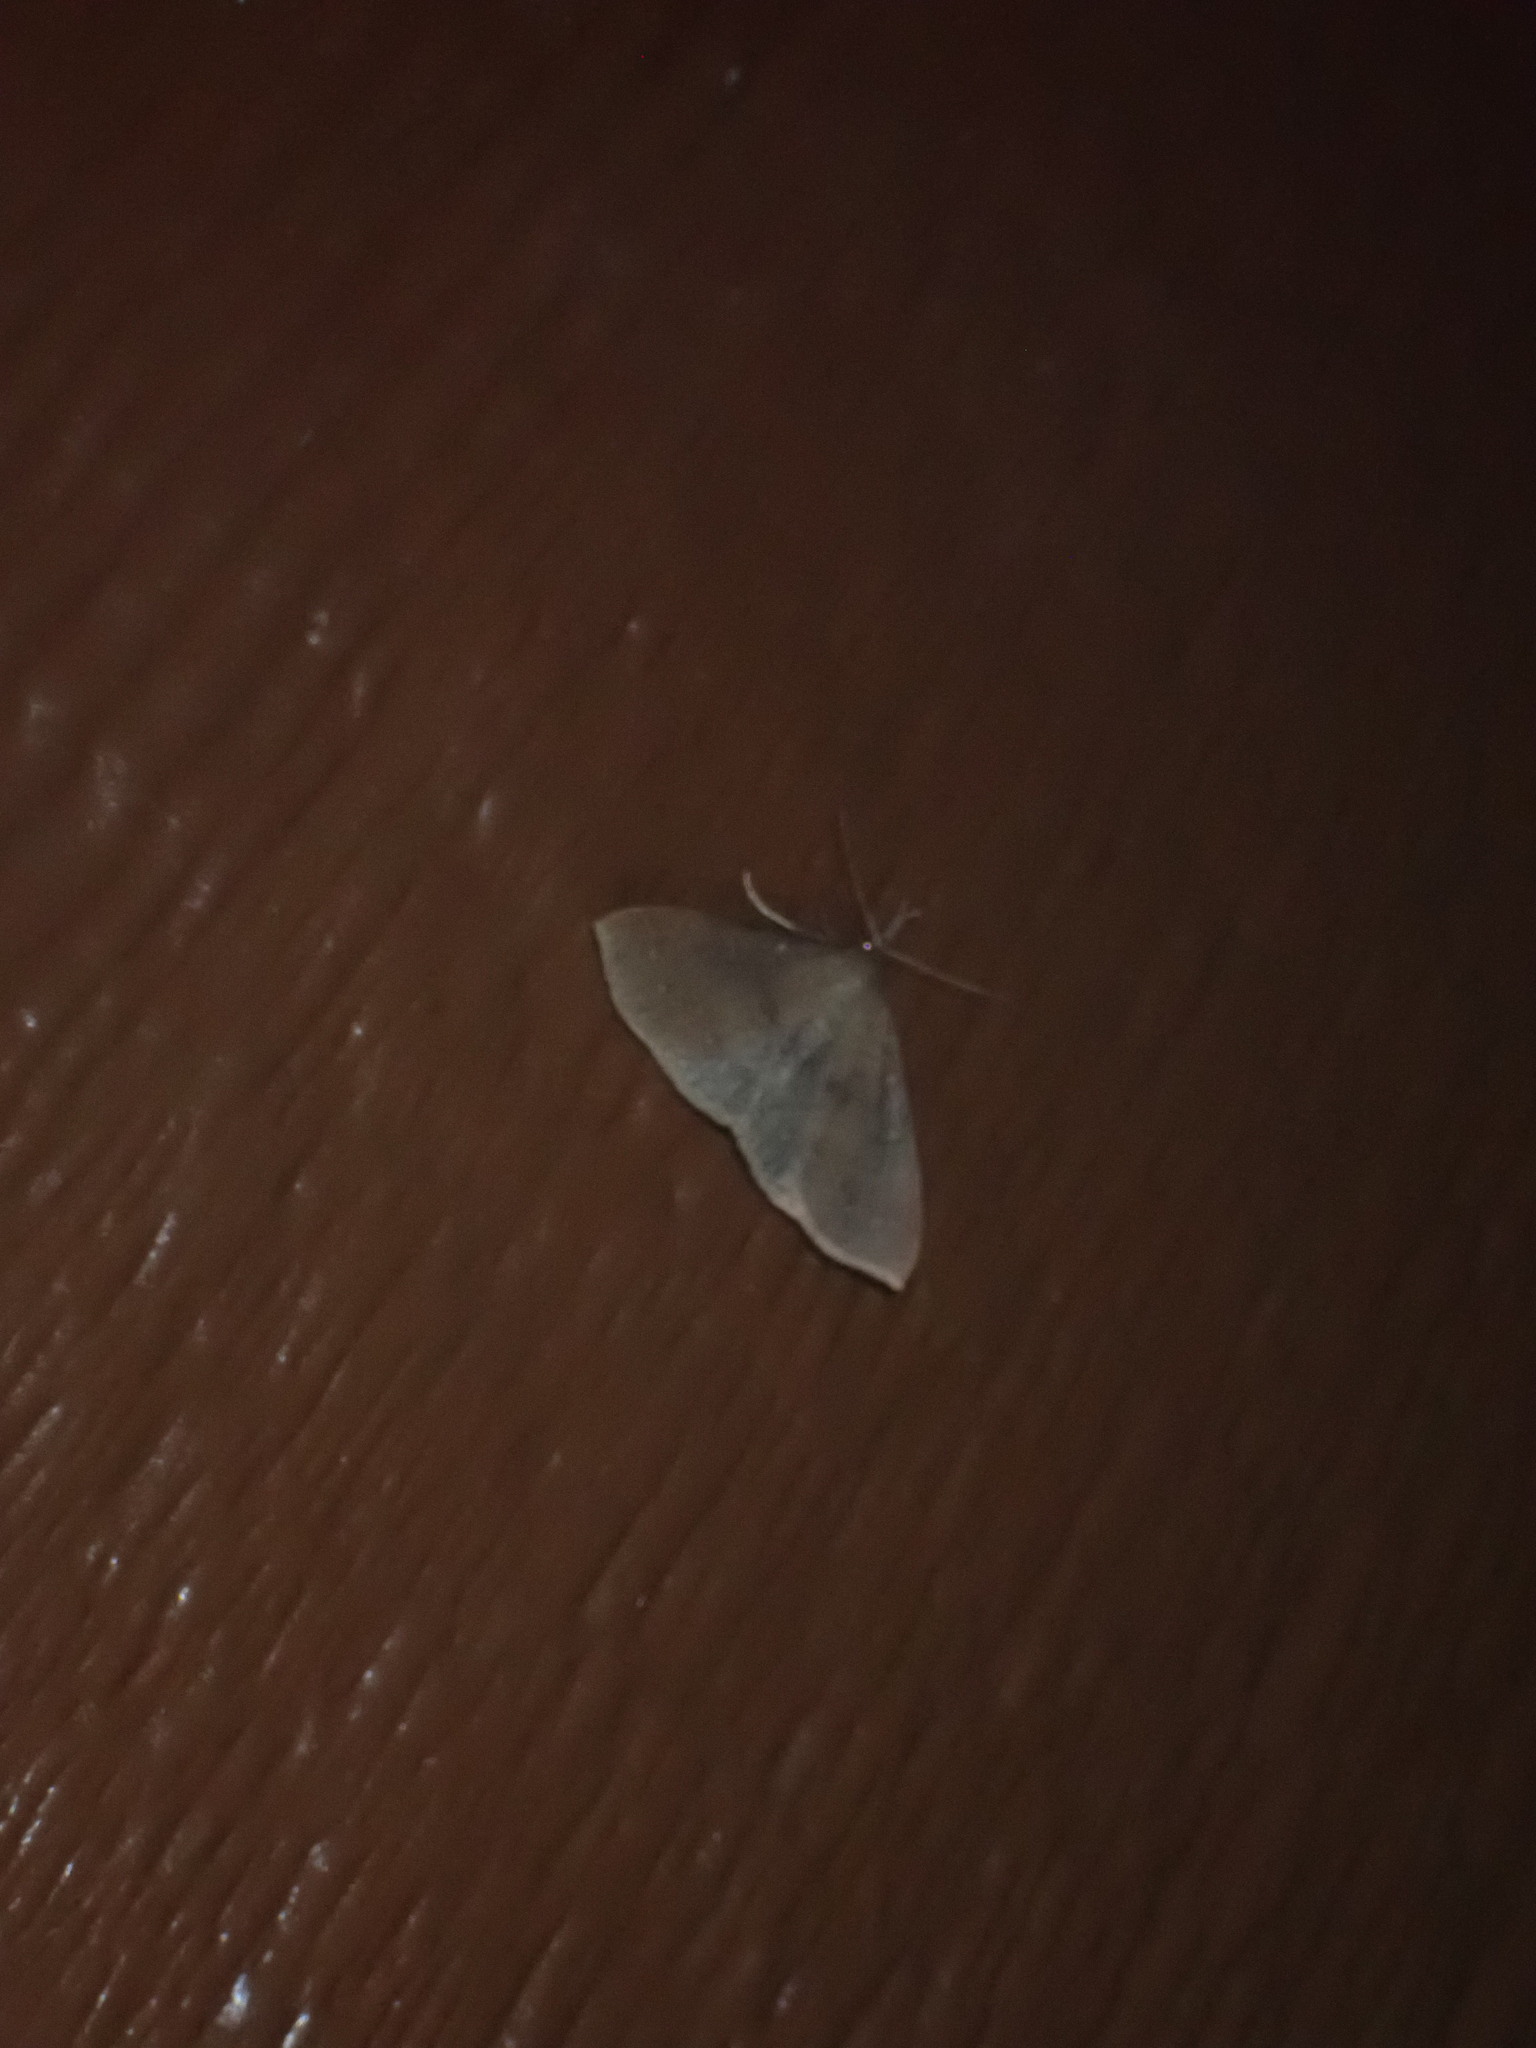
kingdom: Animalia
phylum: Arthropoda
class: Insecta
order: Lepidoptera
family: Geometridae
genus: Eutrapela
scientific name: Eutrapela clemataria
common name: Curved-toothed geometer
